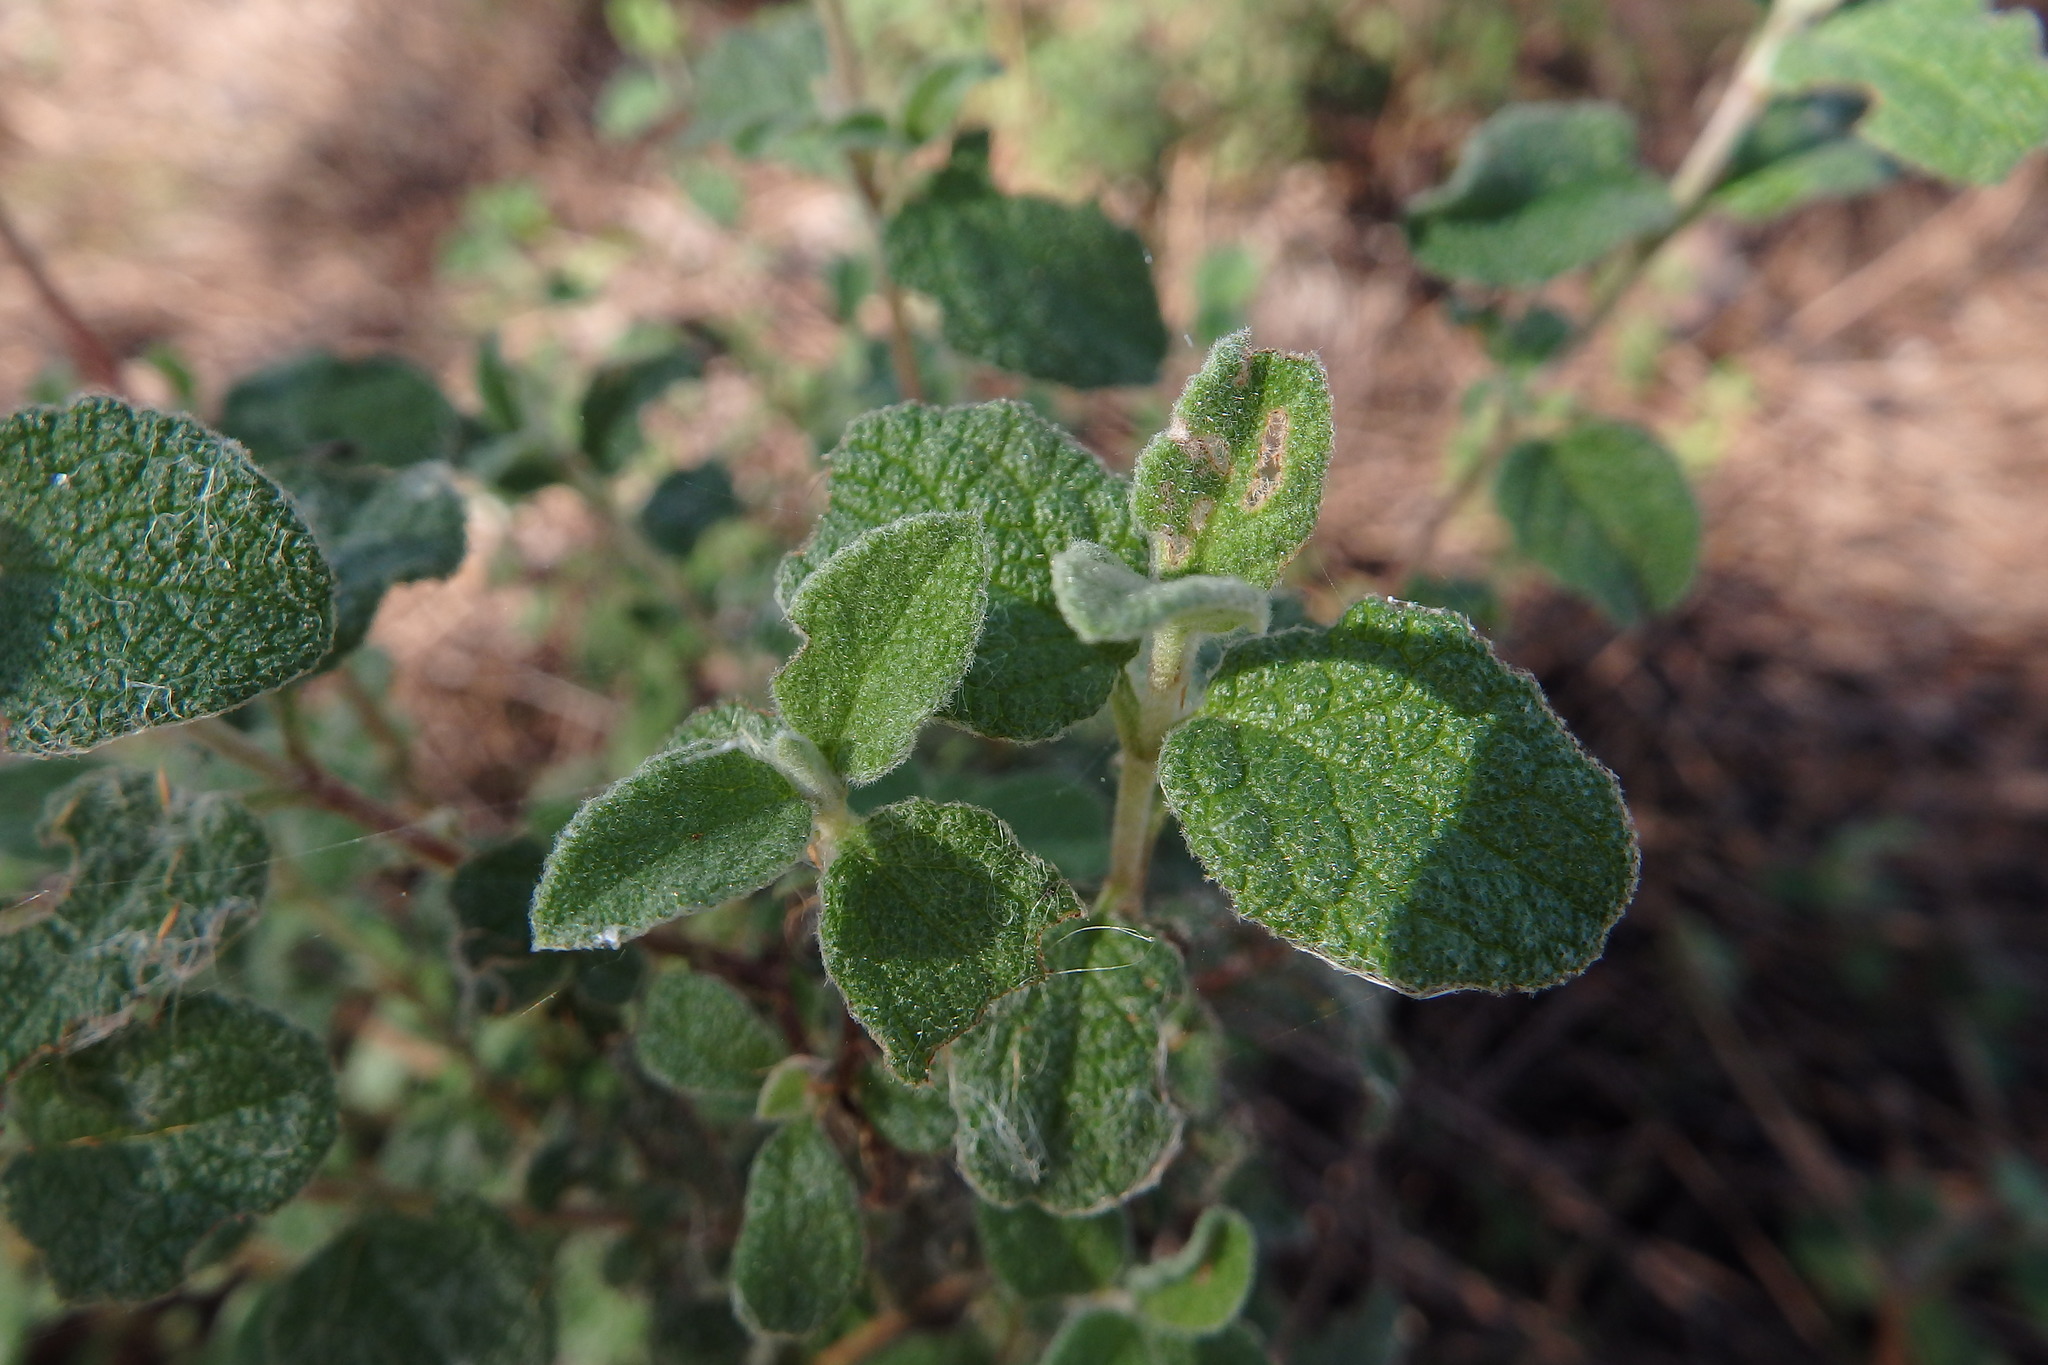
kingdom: Plantae
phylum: Tracheophyta
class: Magnoliopsida
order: Malvales
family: Cistaceae
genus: Cistus
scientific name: Cistus salviifolius
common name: Salvia cistus
